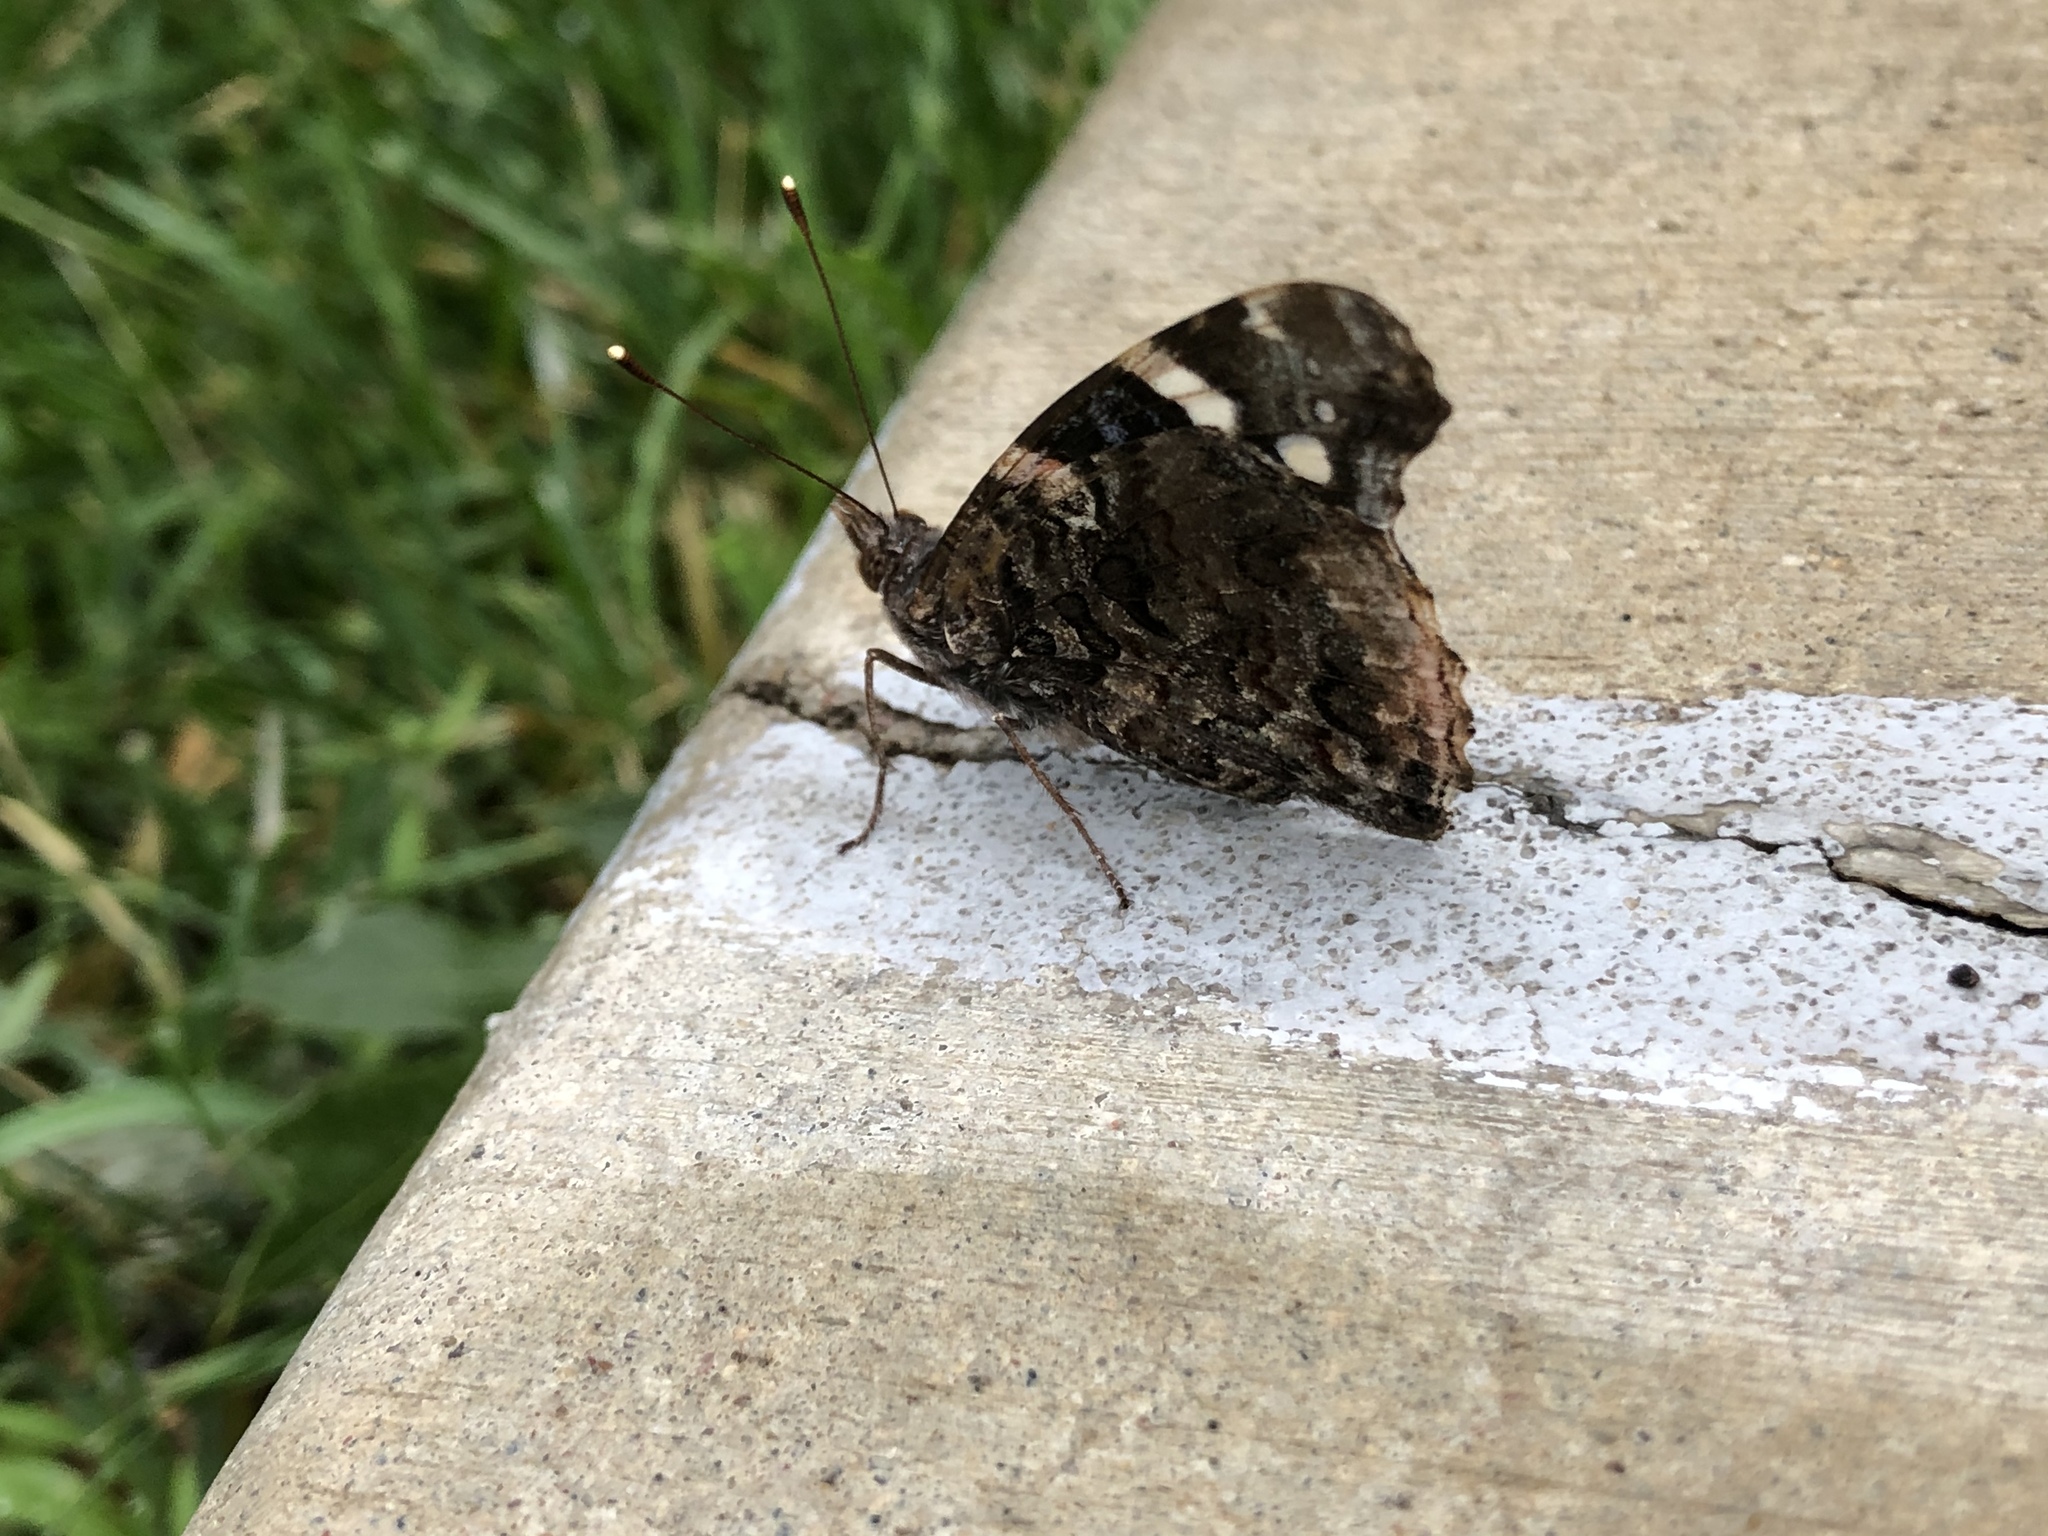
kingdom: Animalia
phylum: Arthropoda
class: Insecta
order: Lepidoptera
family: Nymphalidae
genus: Vanessa
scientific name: Vanessa atalanta
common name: Red admiral
